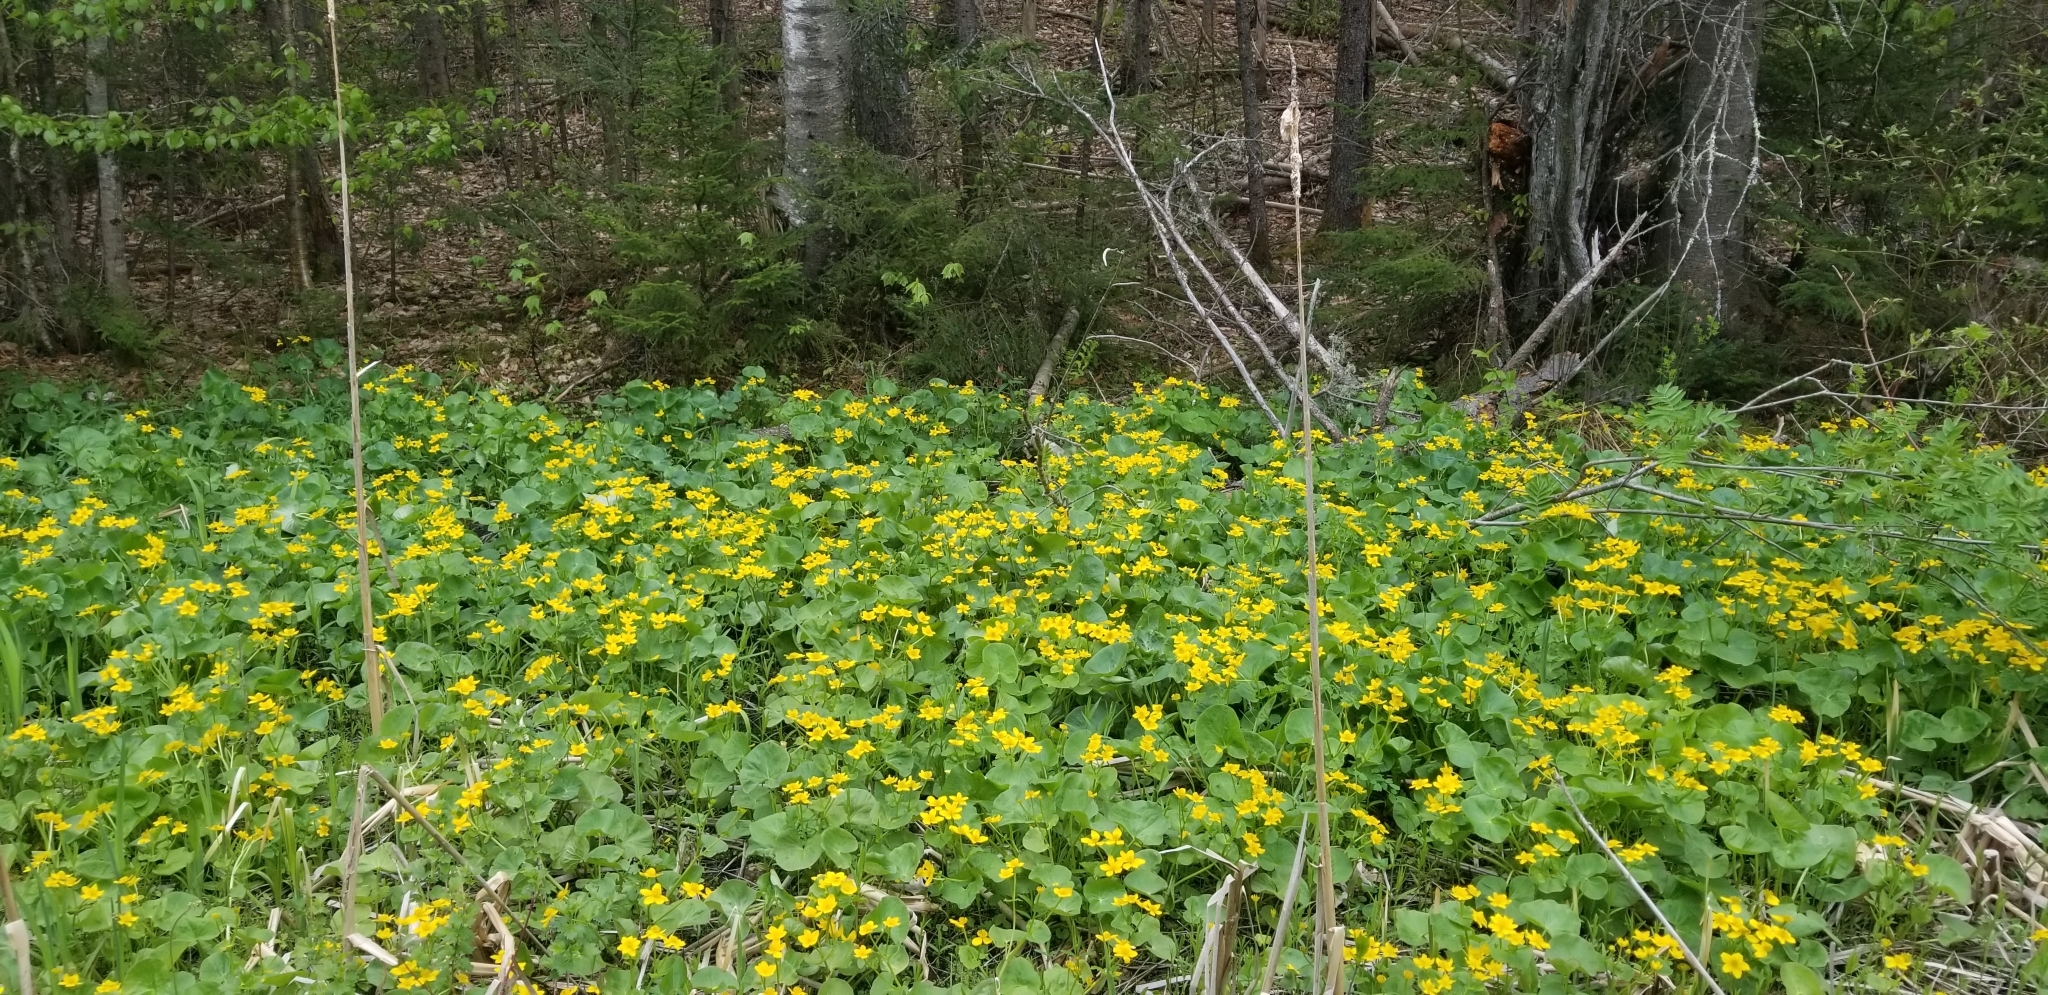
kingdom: Plantae
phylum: Tracheophyta
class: Magnoliopsida
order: Ranunculales
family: Ranunculaceae
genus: Caltha
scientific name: Caltha palustris
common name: Marsh marigold
